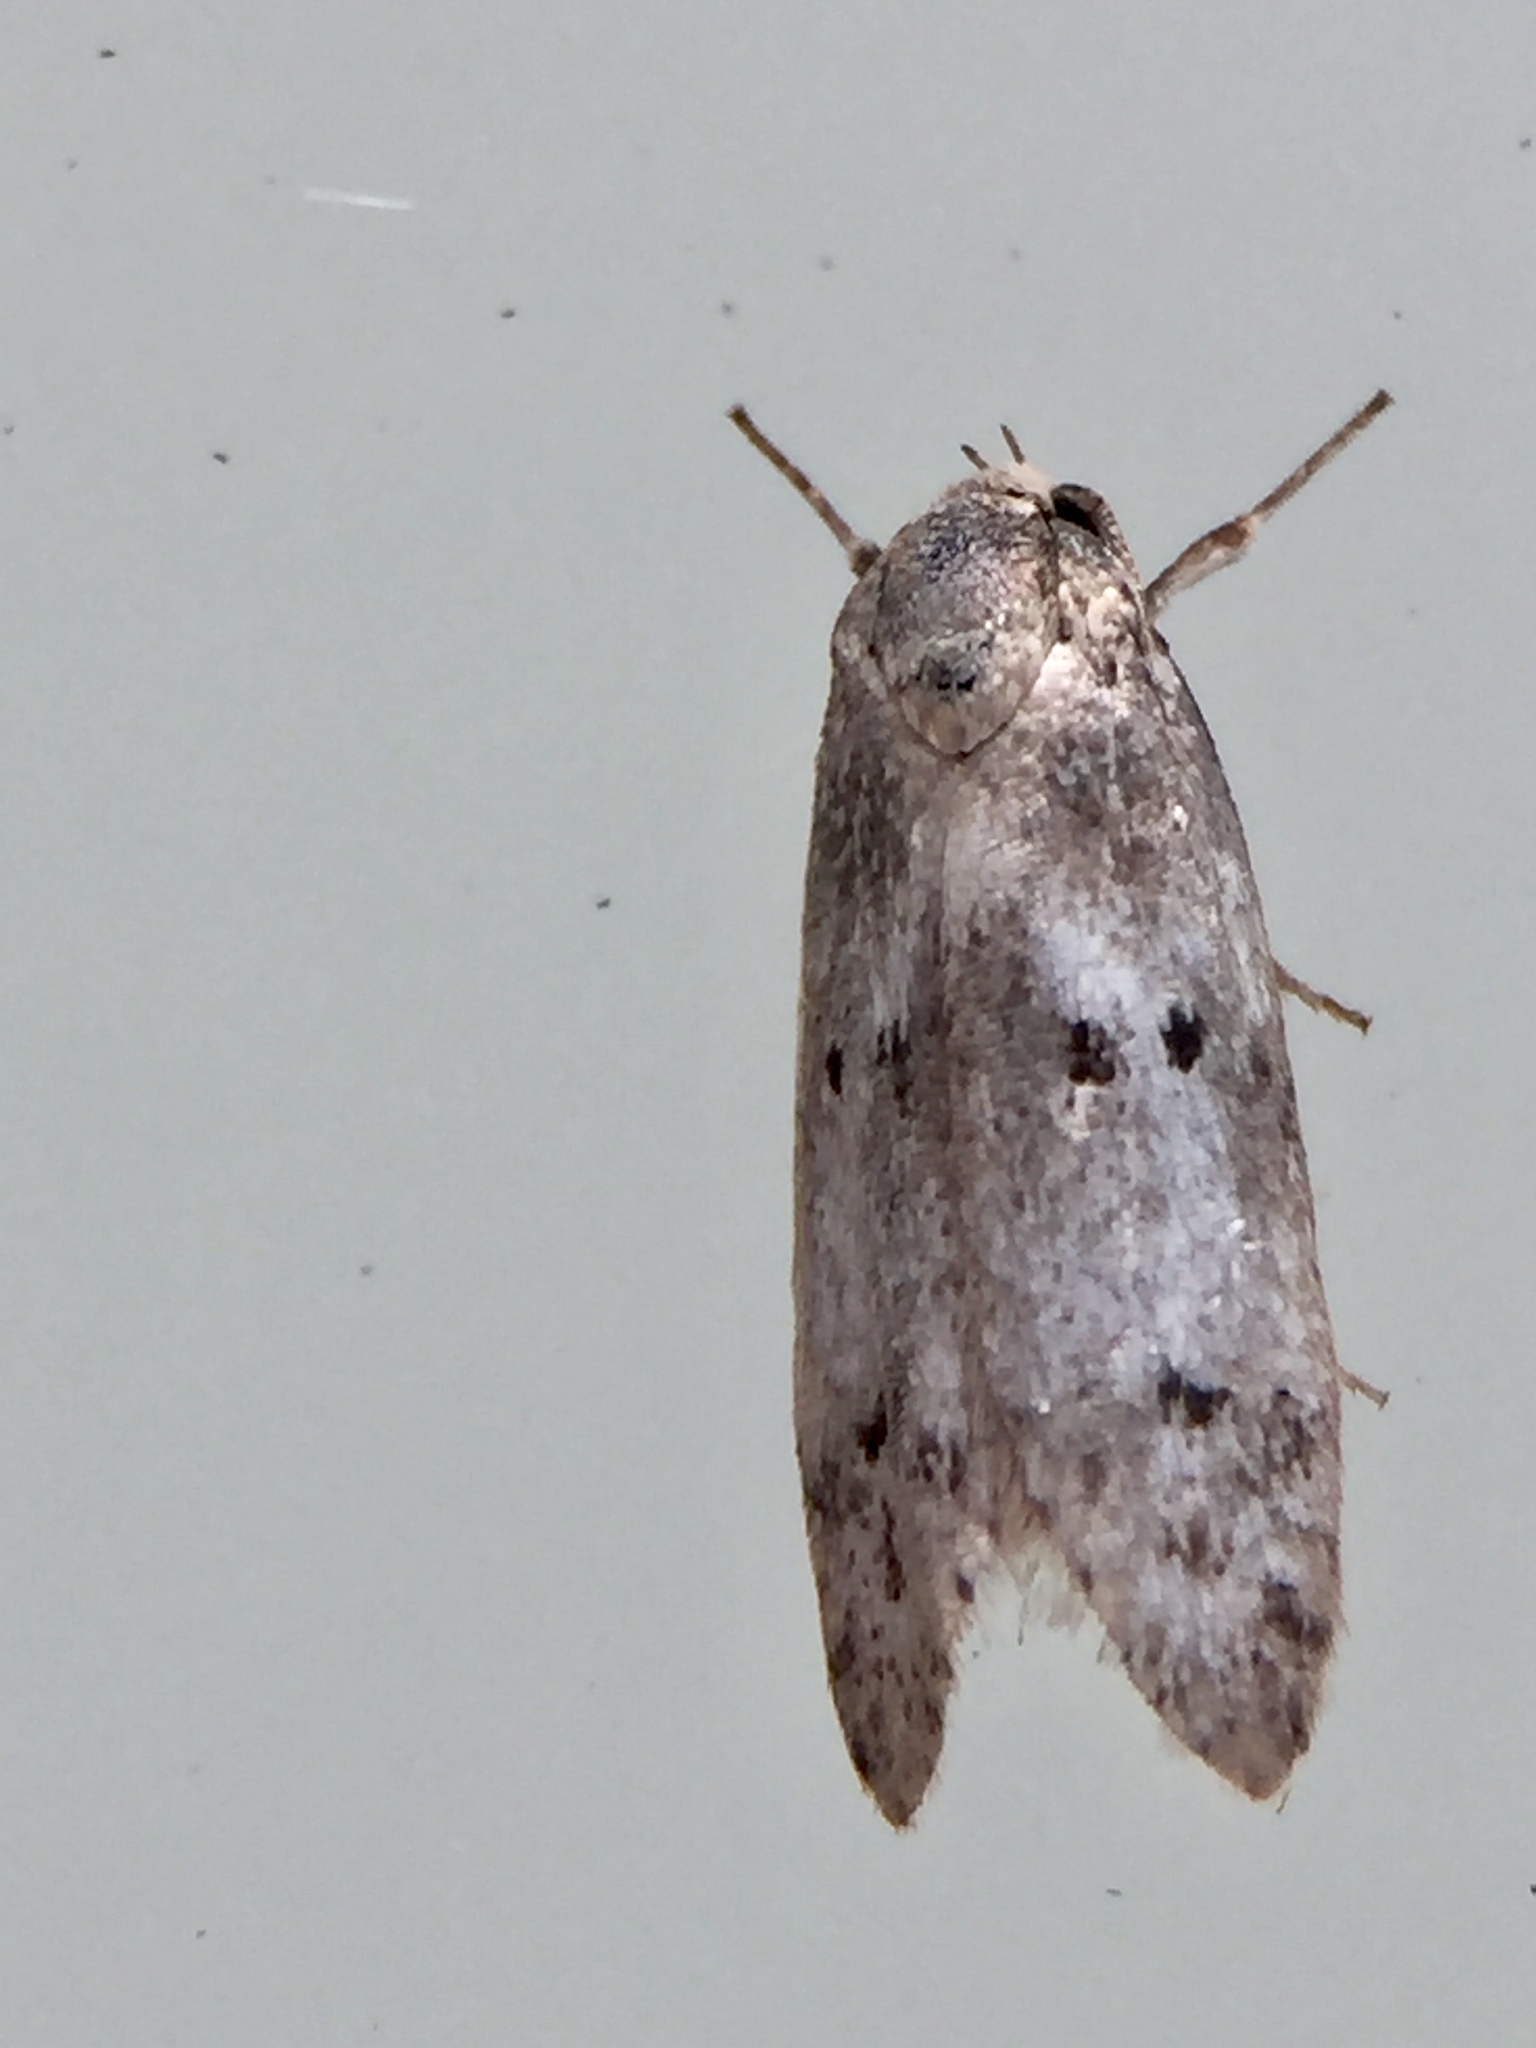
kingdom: Animalia
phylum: Arthropoda
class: Insecta
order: Lepidoptera
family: Oecophoridae
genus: Trachypepla
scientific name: Trachypepla indolescens
